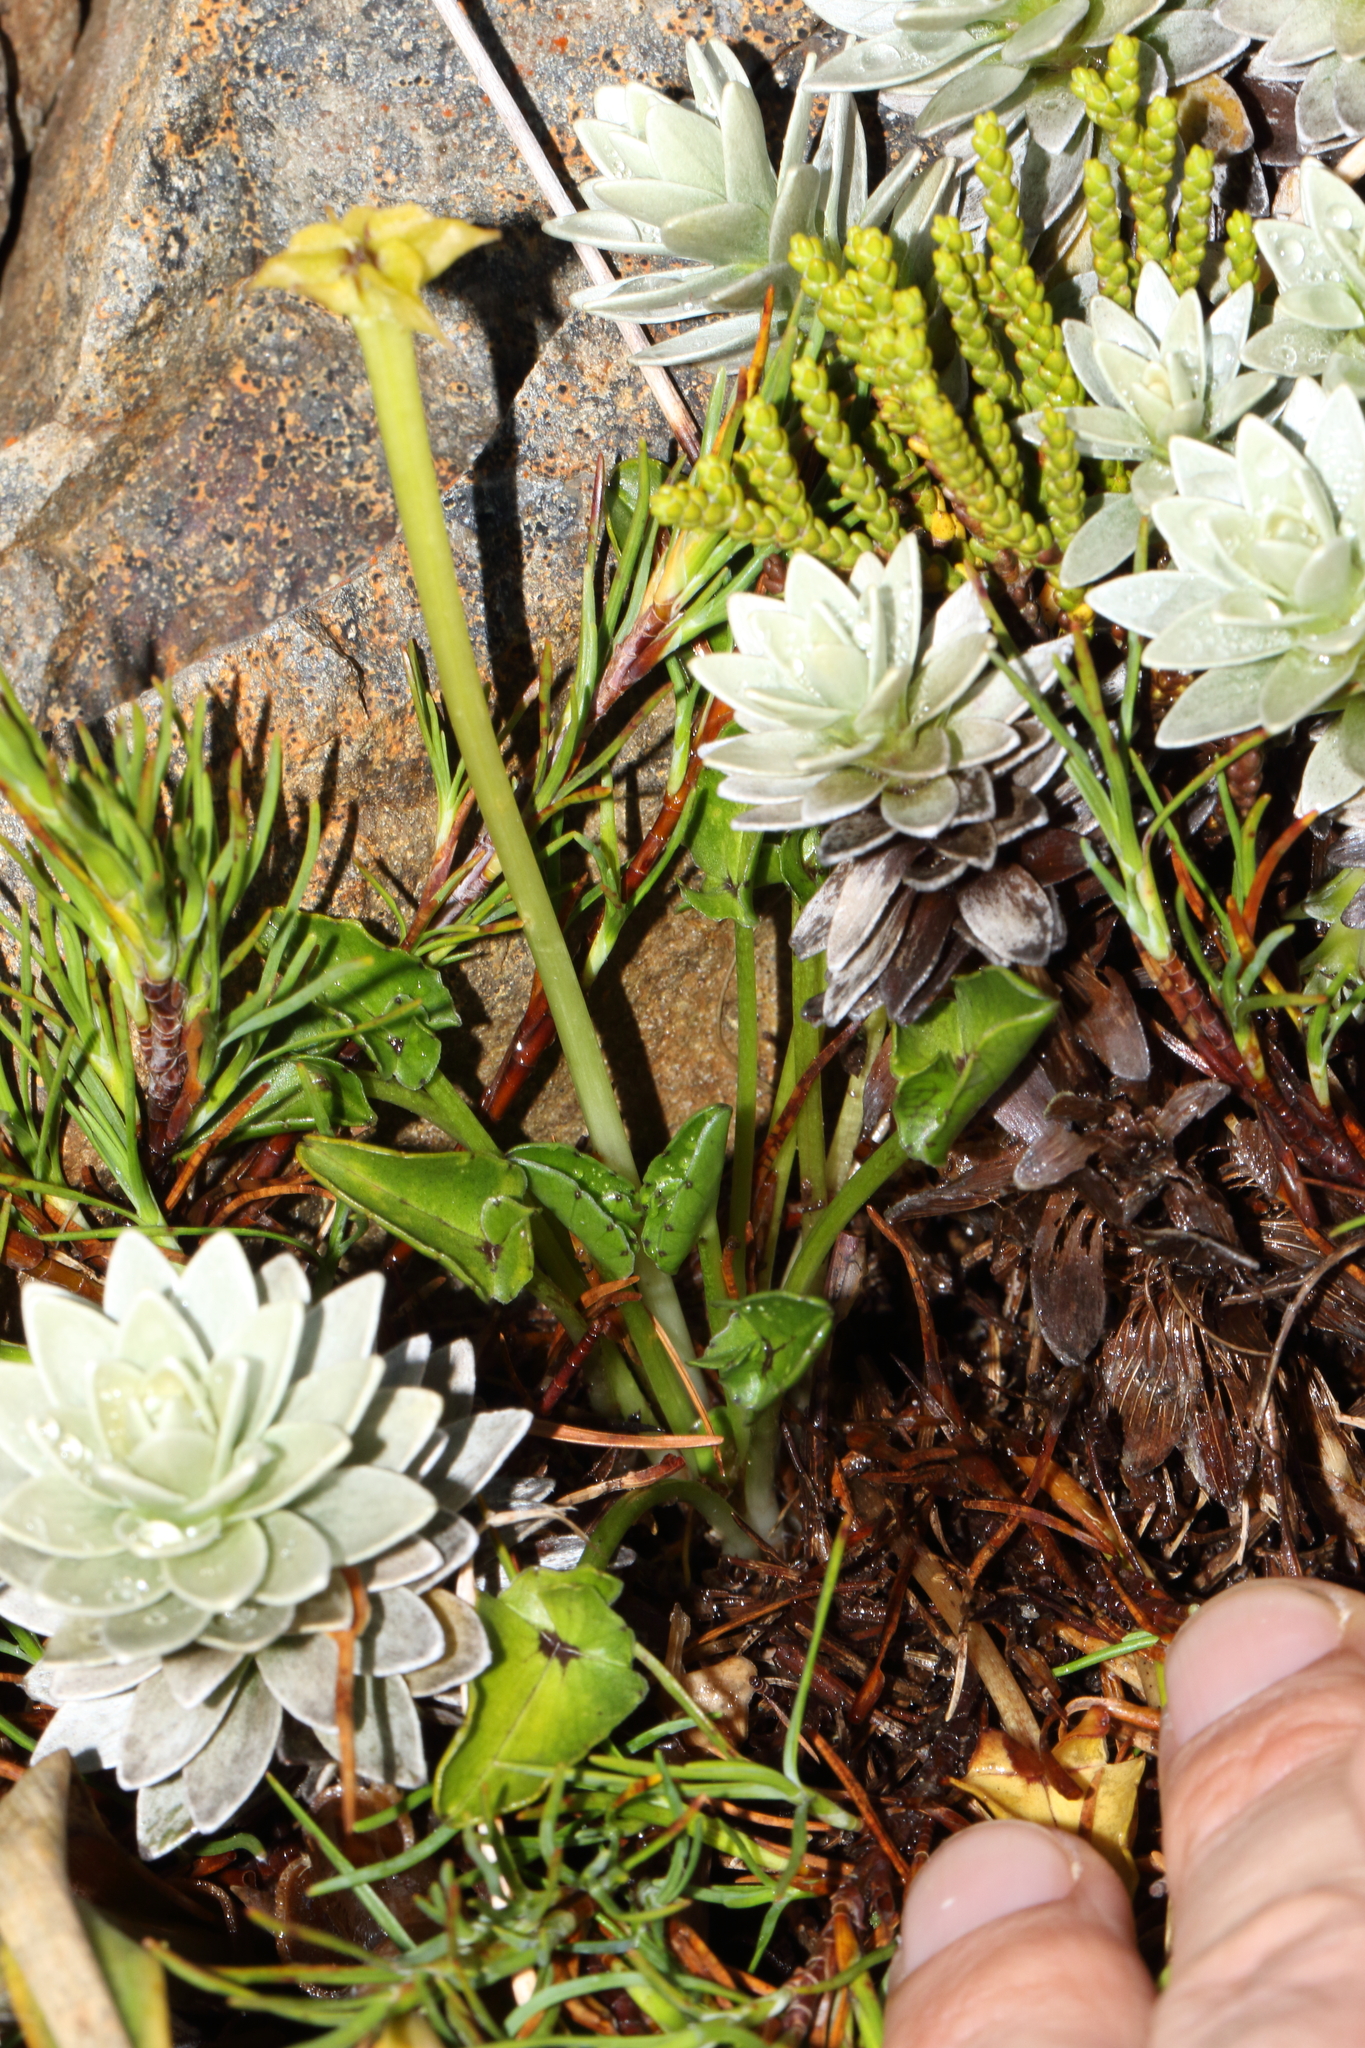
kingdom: Plantae
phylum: Tracheophyta
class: Magnoliopsida
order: Ranunculales
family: Ranunculaceae
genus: Caltha
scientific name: Caltha novae-zelandiae
